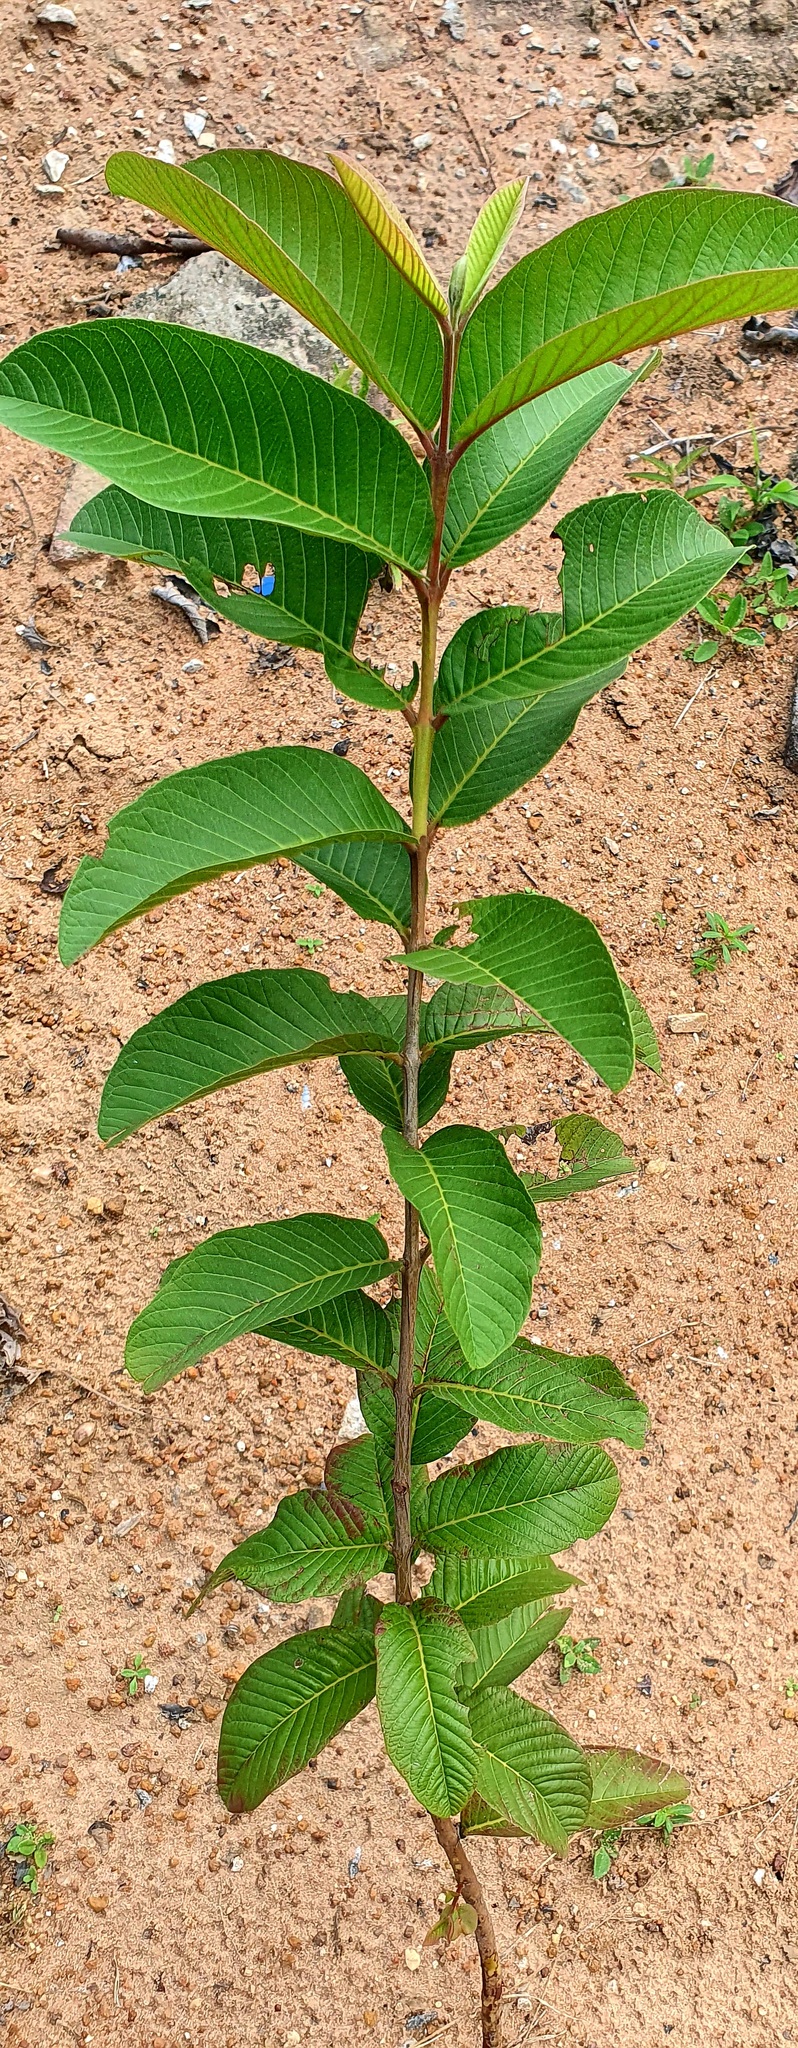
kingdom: Plantae
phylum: Tracheophyta
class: Magnoliopsida
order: Myrtales
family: Myrtaceae
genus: Psidium
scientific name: Psidium guajava
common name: Guava
